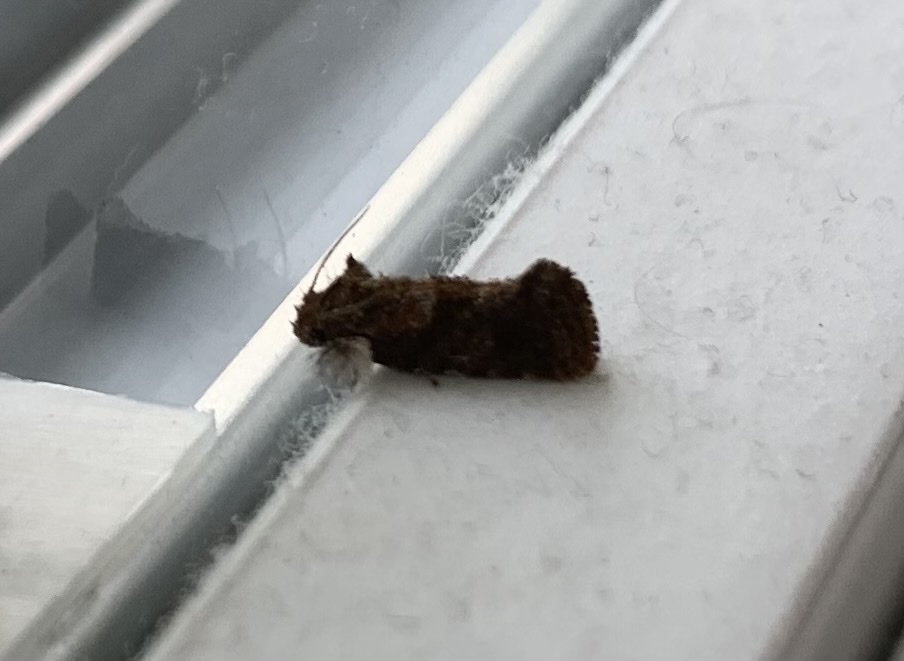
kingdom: Animalia
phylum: Arthropoda
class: Insecta
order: Lepidoptera
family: Tineidae
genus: Acrolophus
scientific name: Acrolophus panamae
